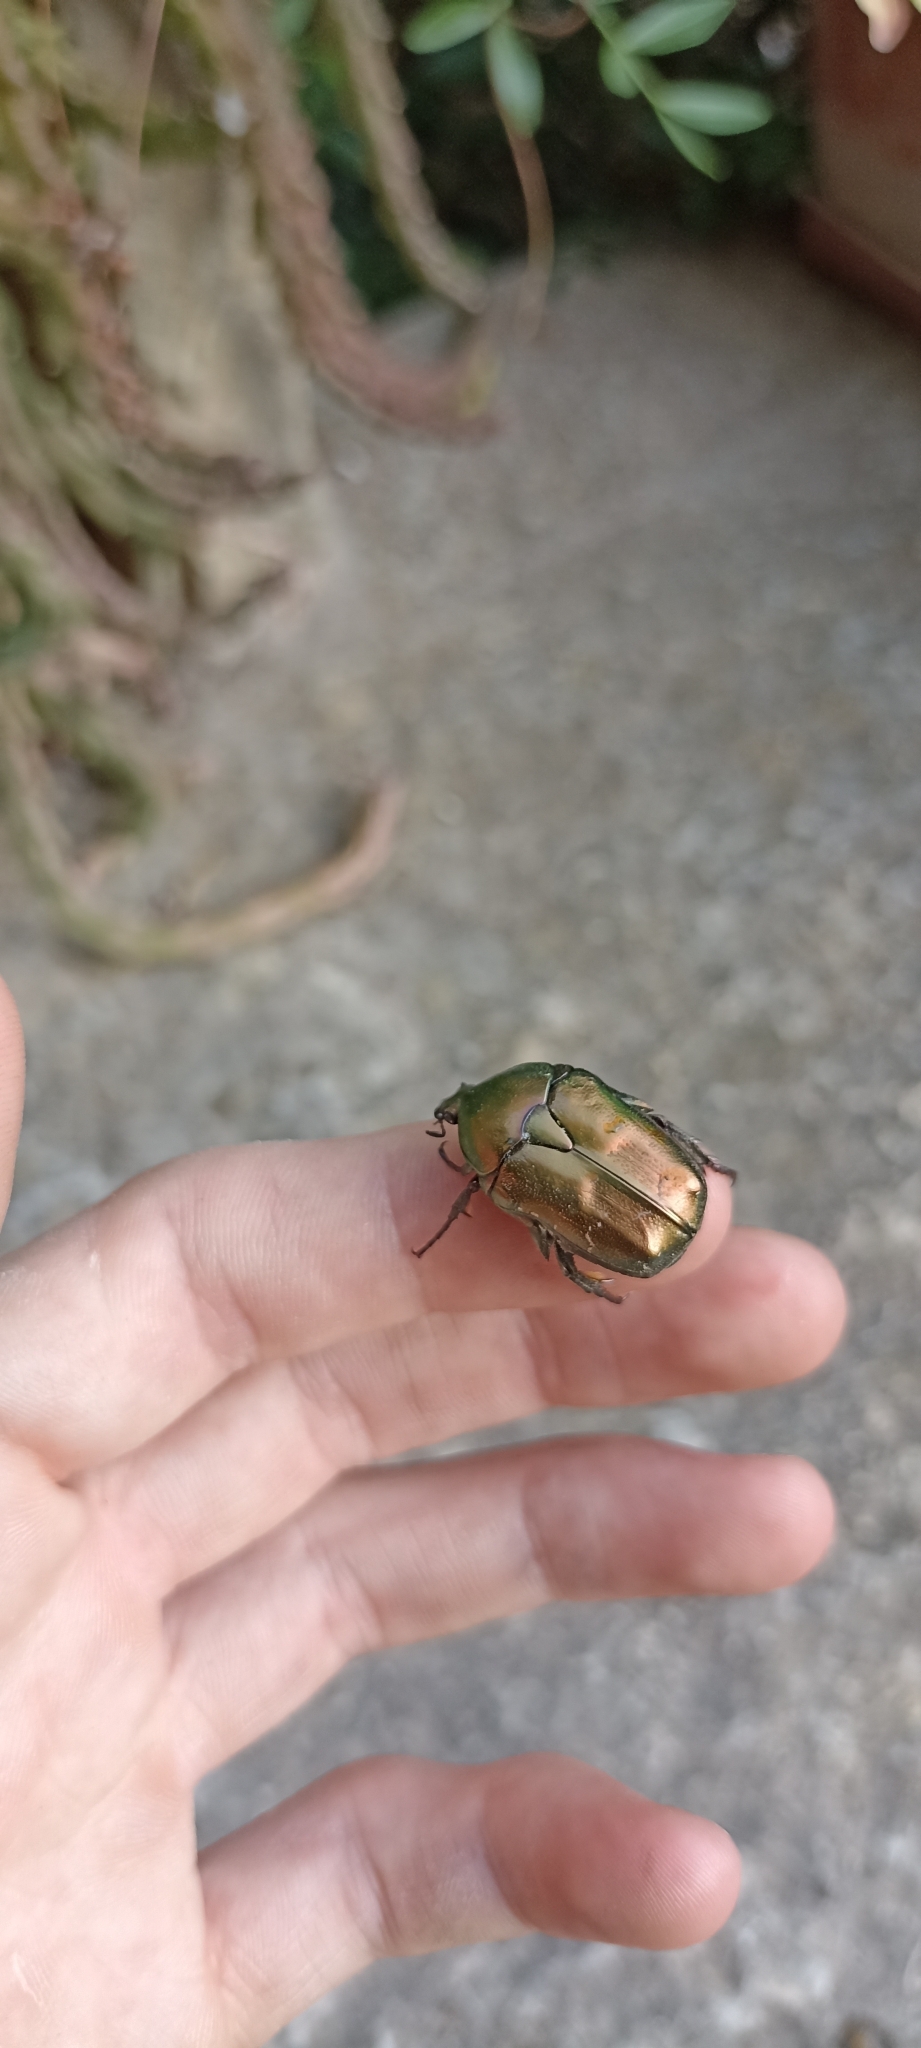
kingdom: Animalia
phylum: Arthropoda
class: Insecta
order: Coleoptera
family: Scarabaeidae
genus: Protaetia
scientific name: Protaetia cuprea
